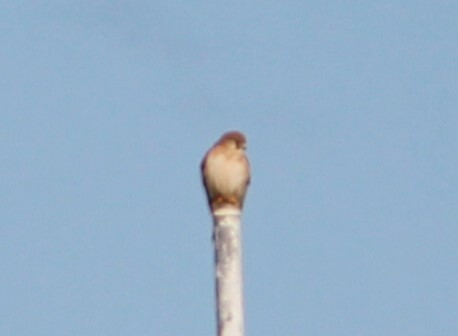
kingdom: Animalia
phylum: Chordata
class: Aves
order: Falconiformes
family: Falconidae
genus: Falco
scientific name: Falco cenchroides
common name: Nankeen kestrel
